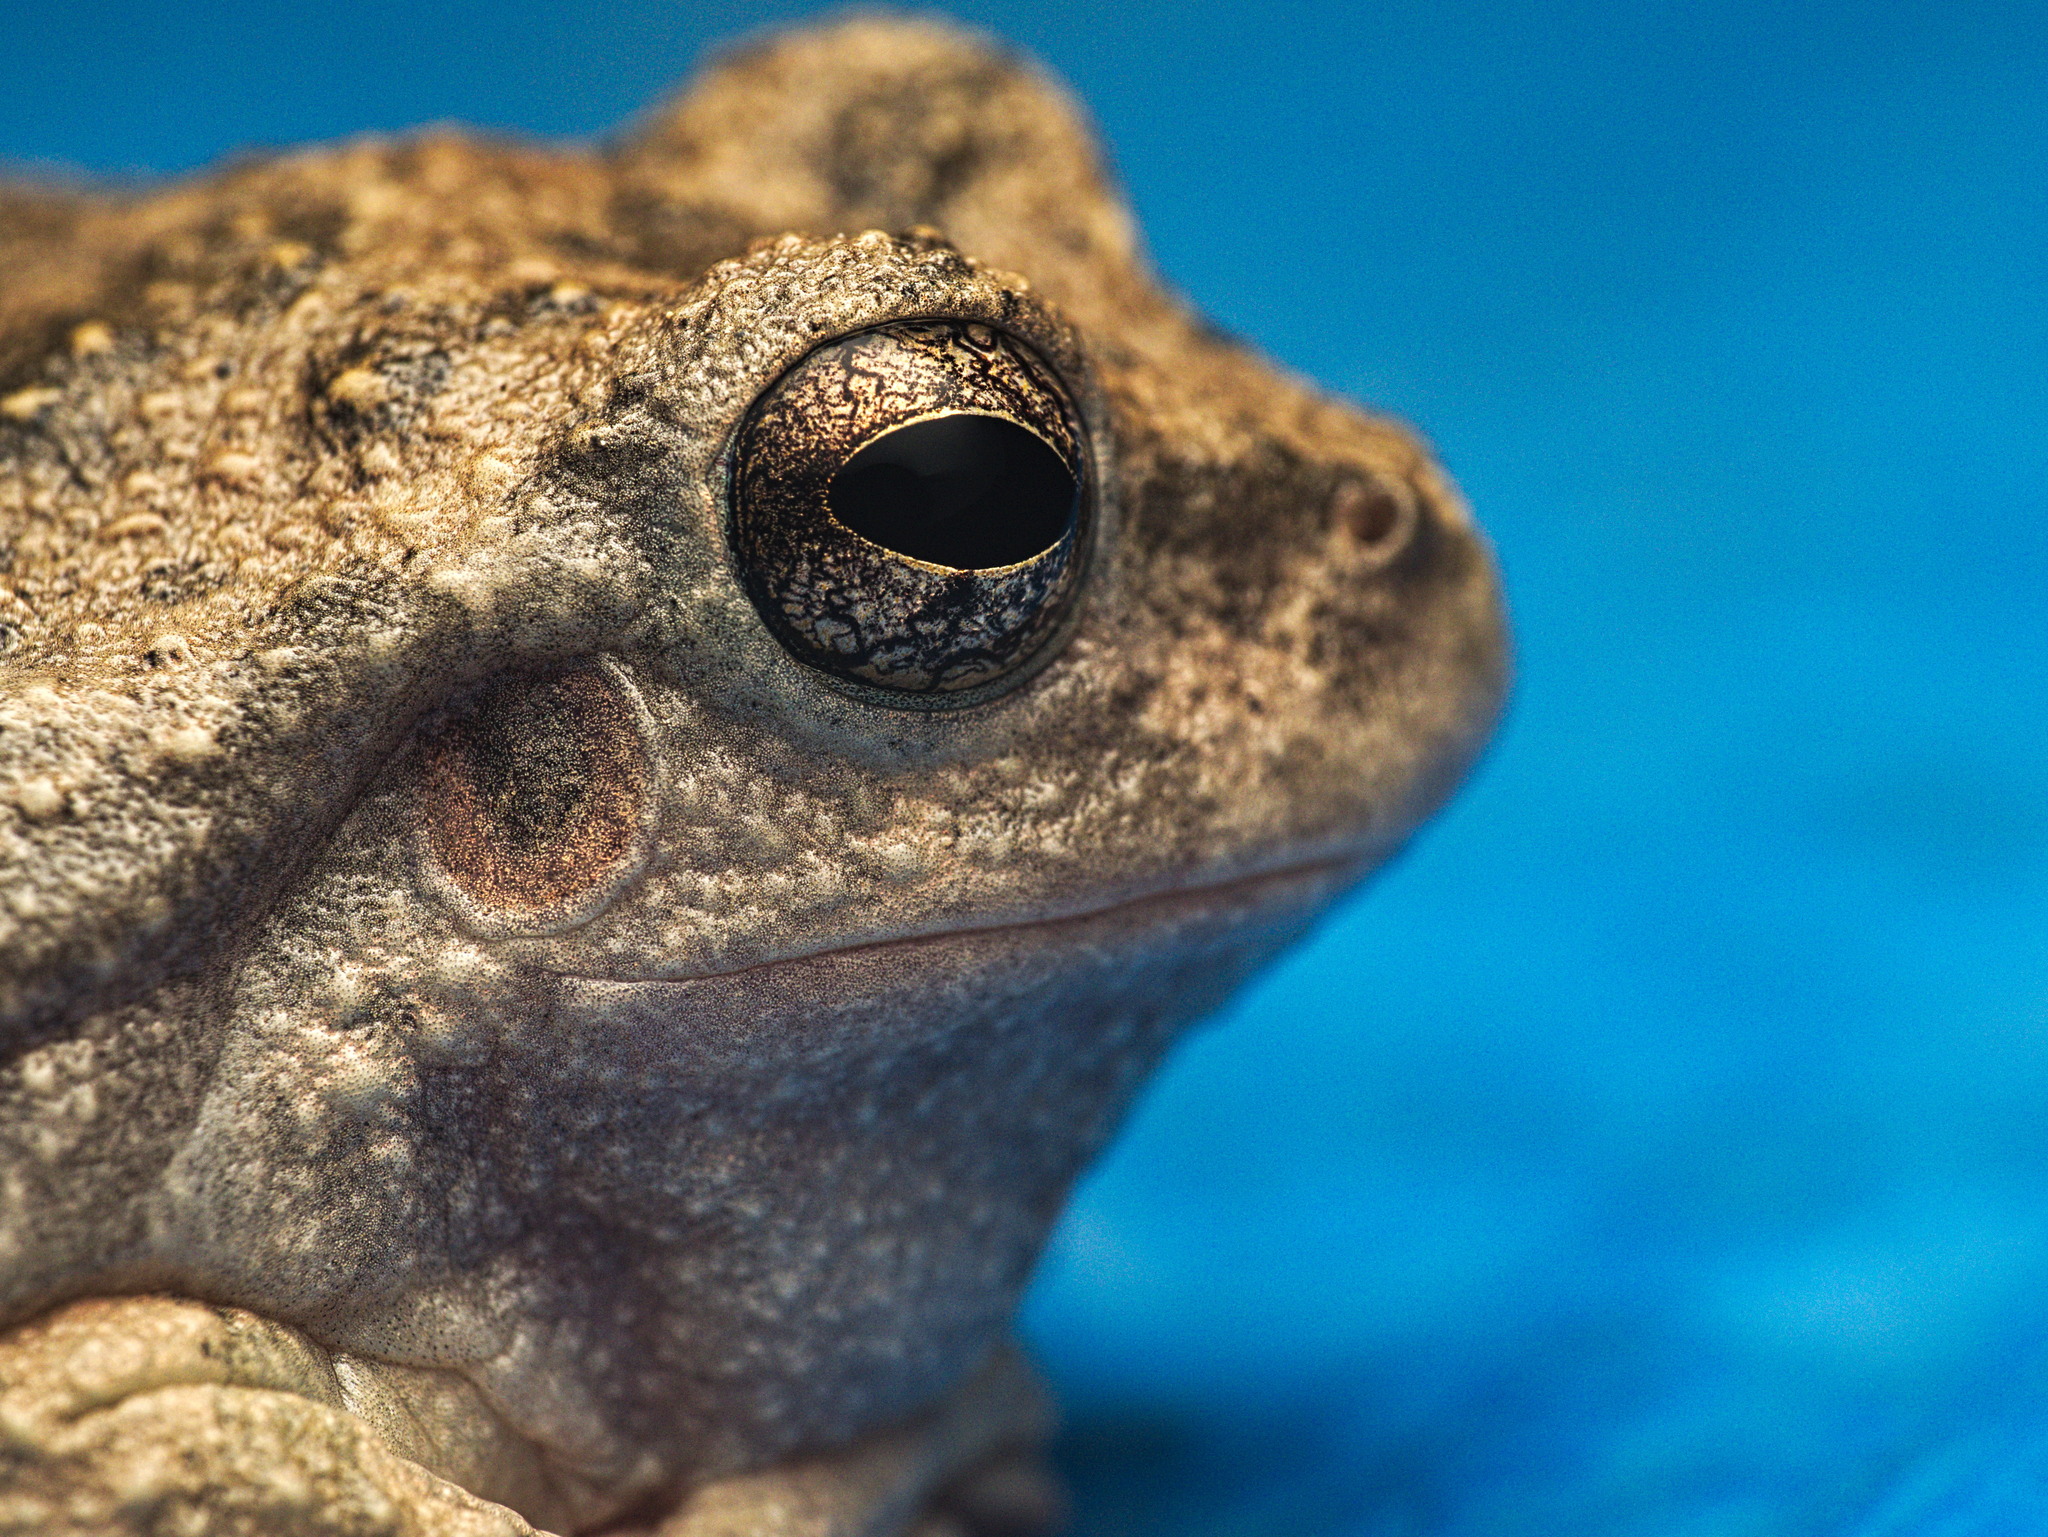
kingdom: Animalia
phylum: Chordata
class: Amphibia
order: Anura
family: Hylidae
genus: Dryophytes
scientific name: Dryophytes arenicolor
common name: Canyon treefrog
